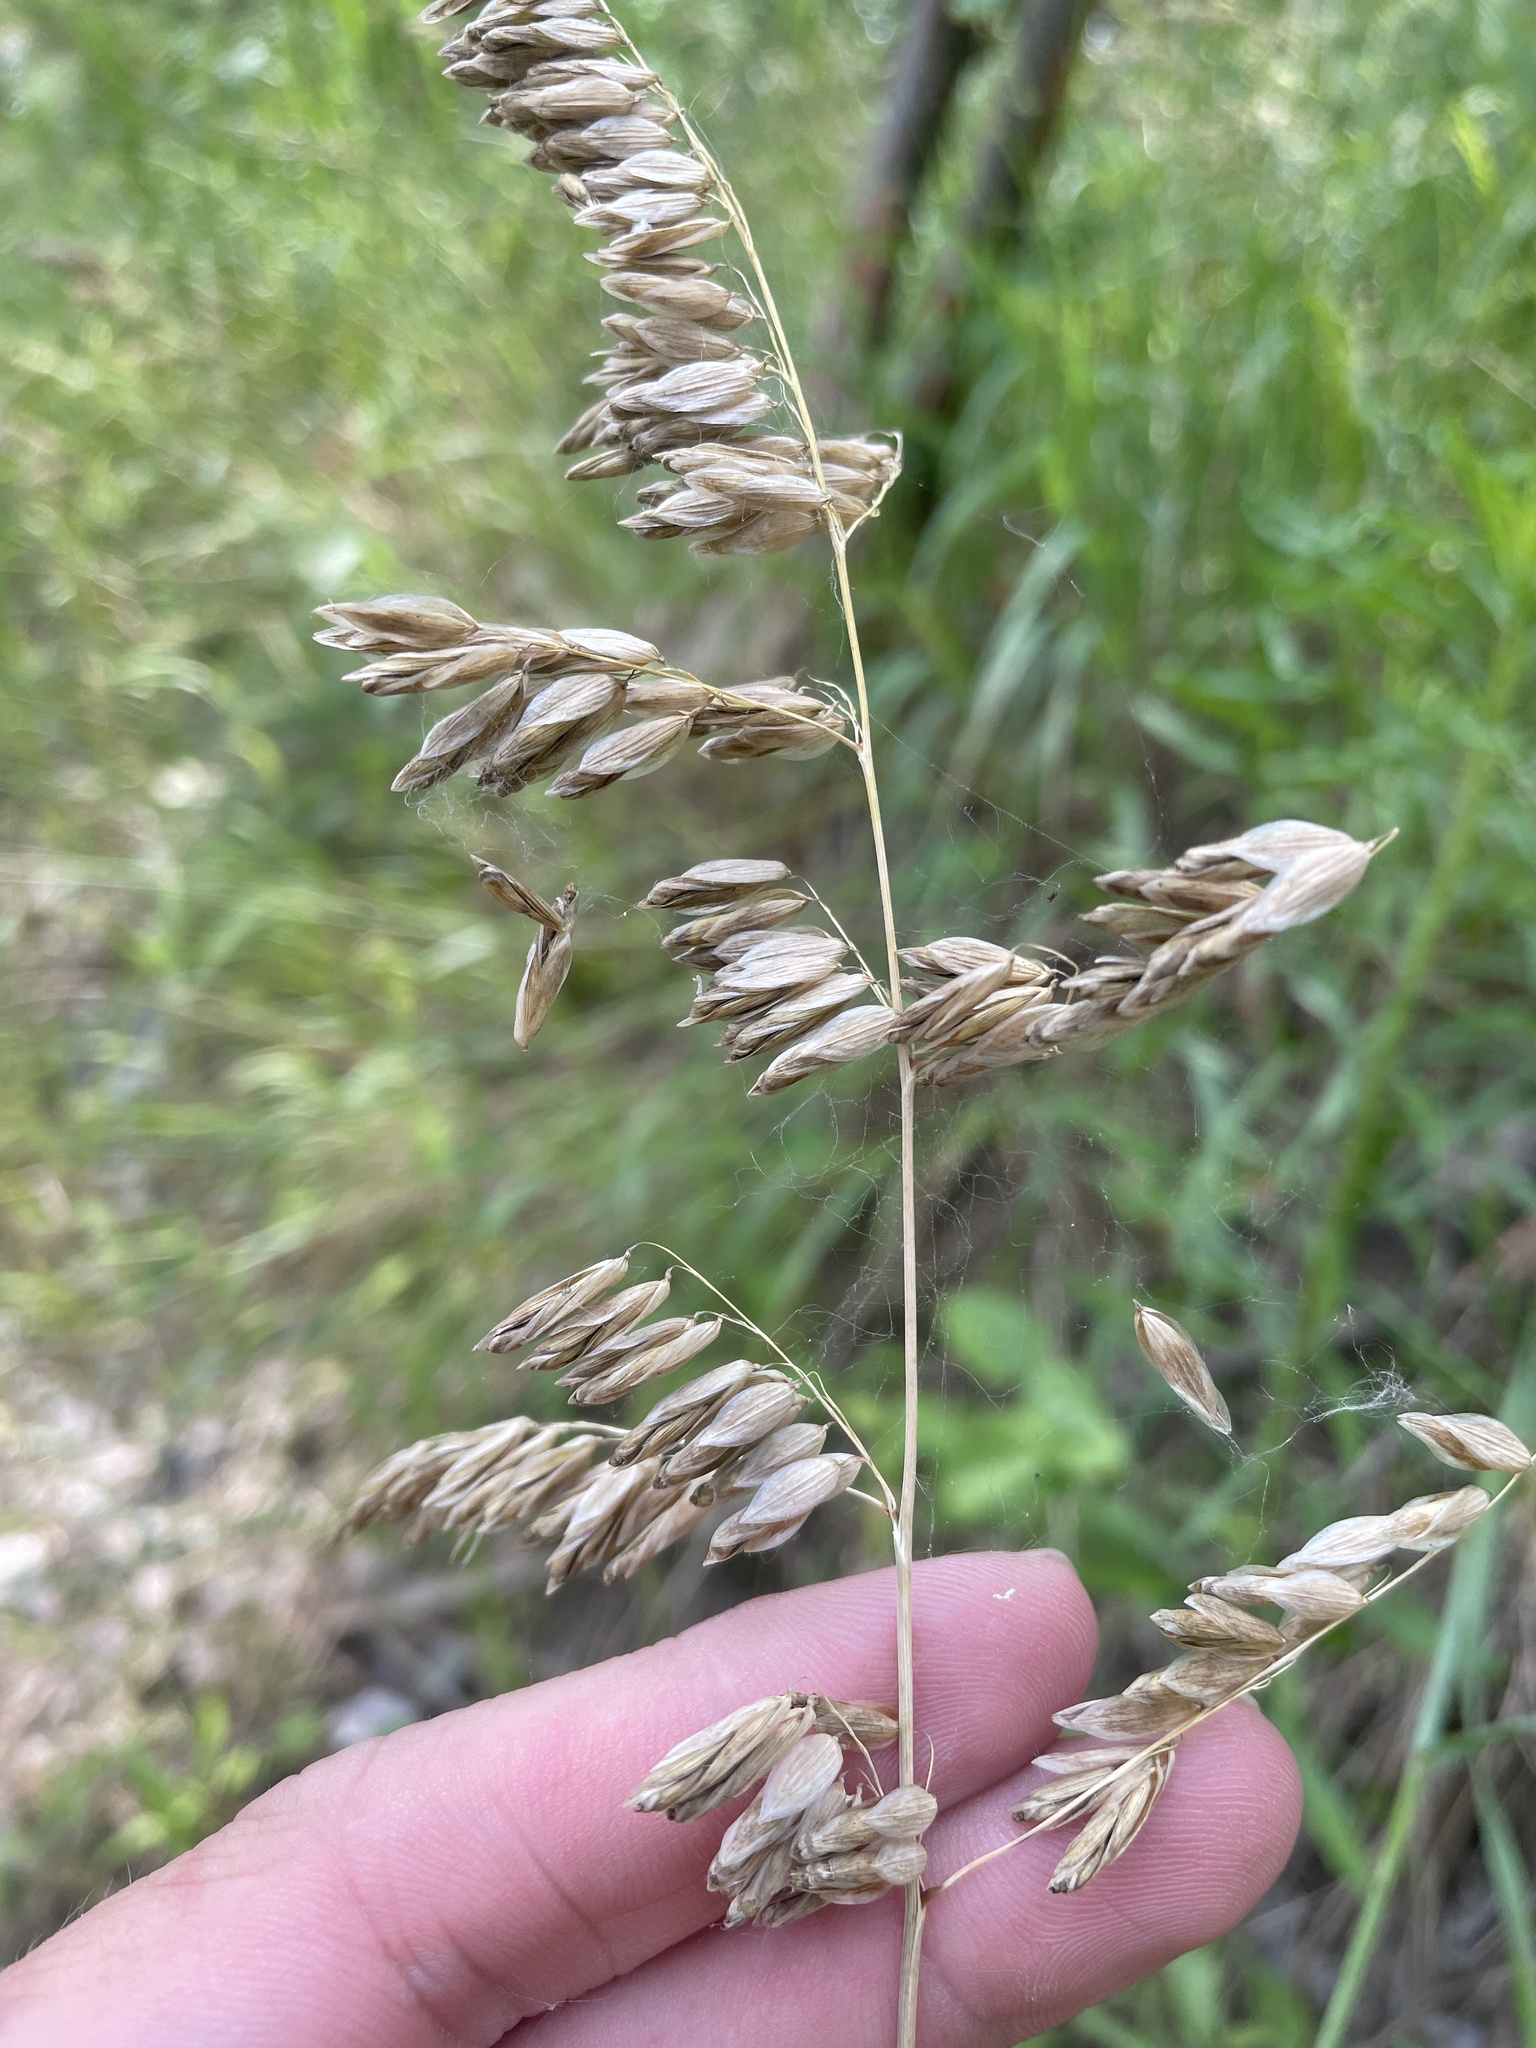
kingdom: Plantae
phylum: Tracheophyta
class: Liliopsida
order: Poales
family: Poaceae
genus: Melica
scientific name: Melica nitens
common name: Three-flower melic
